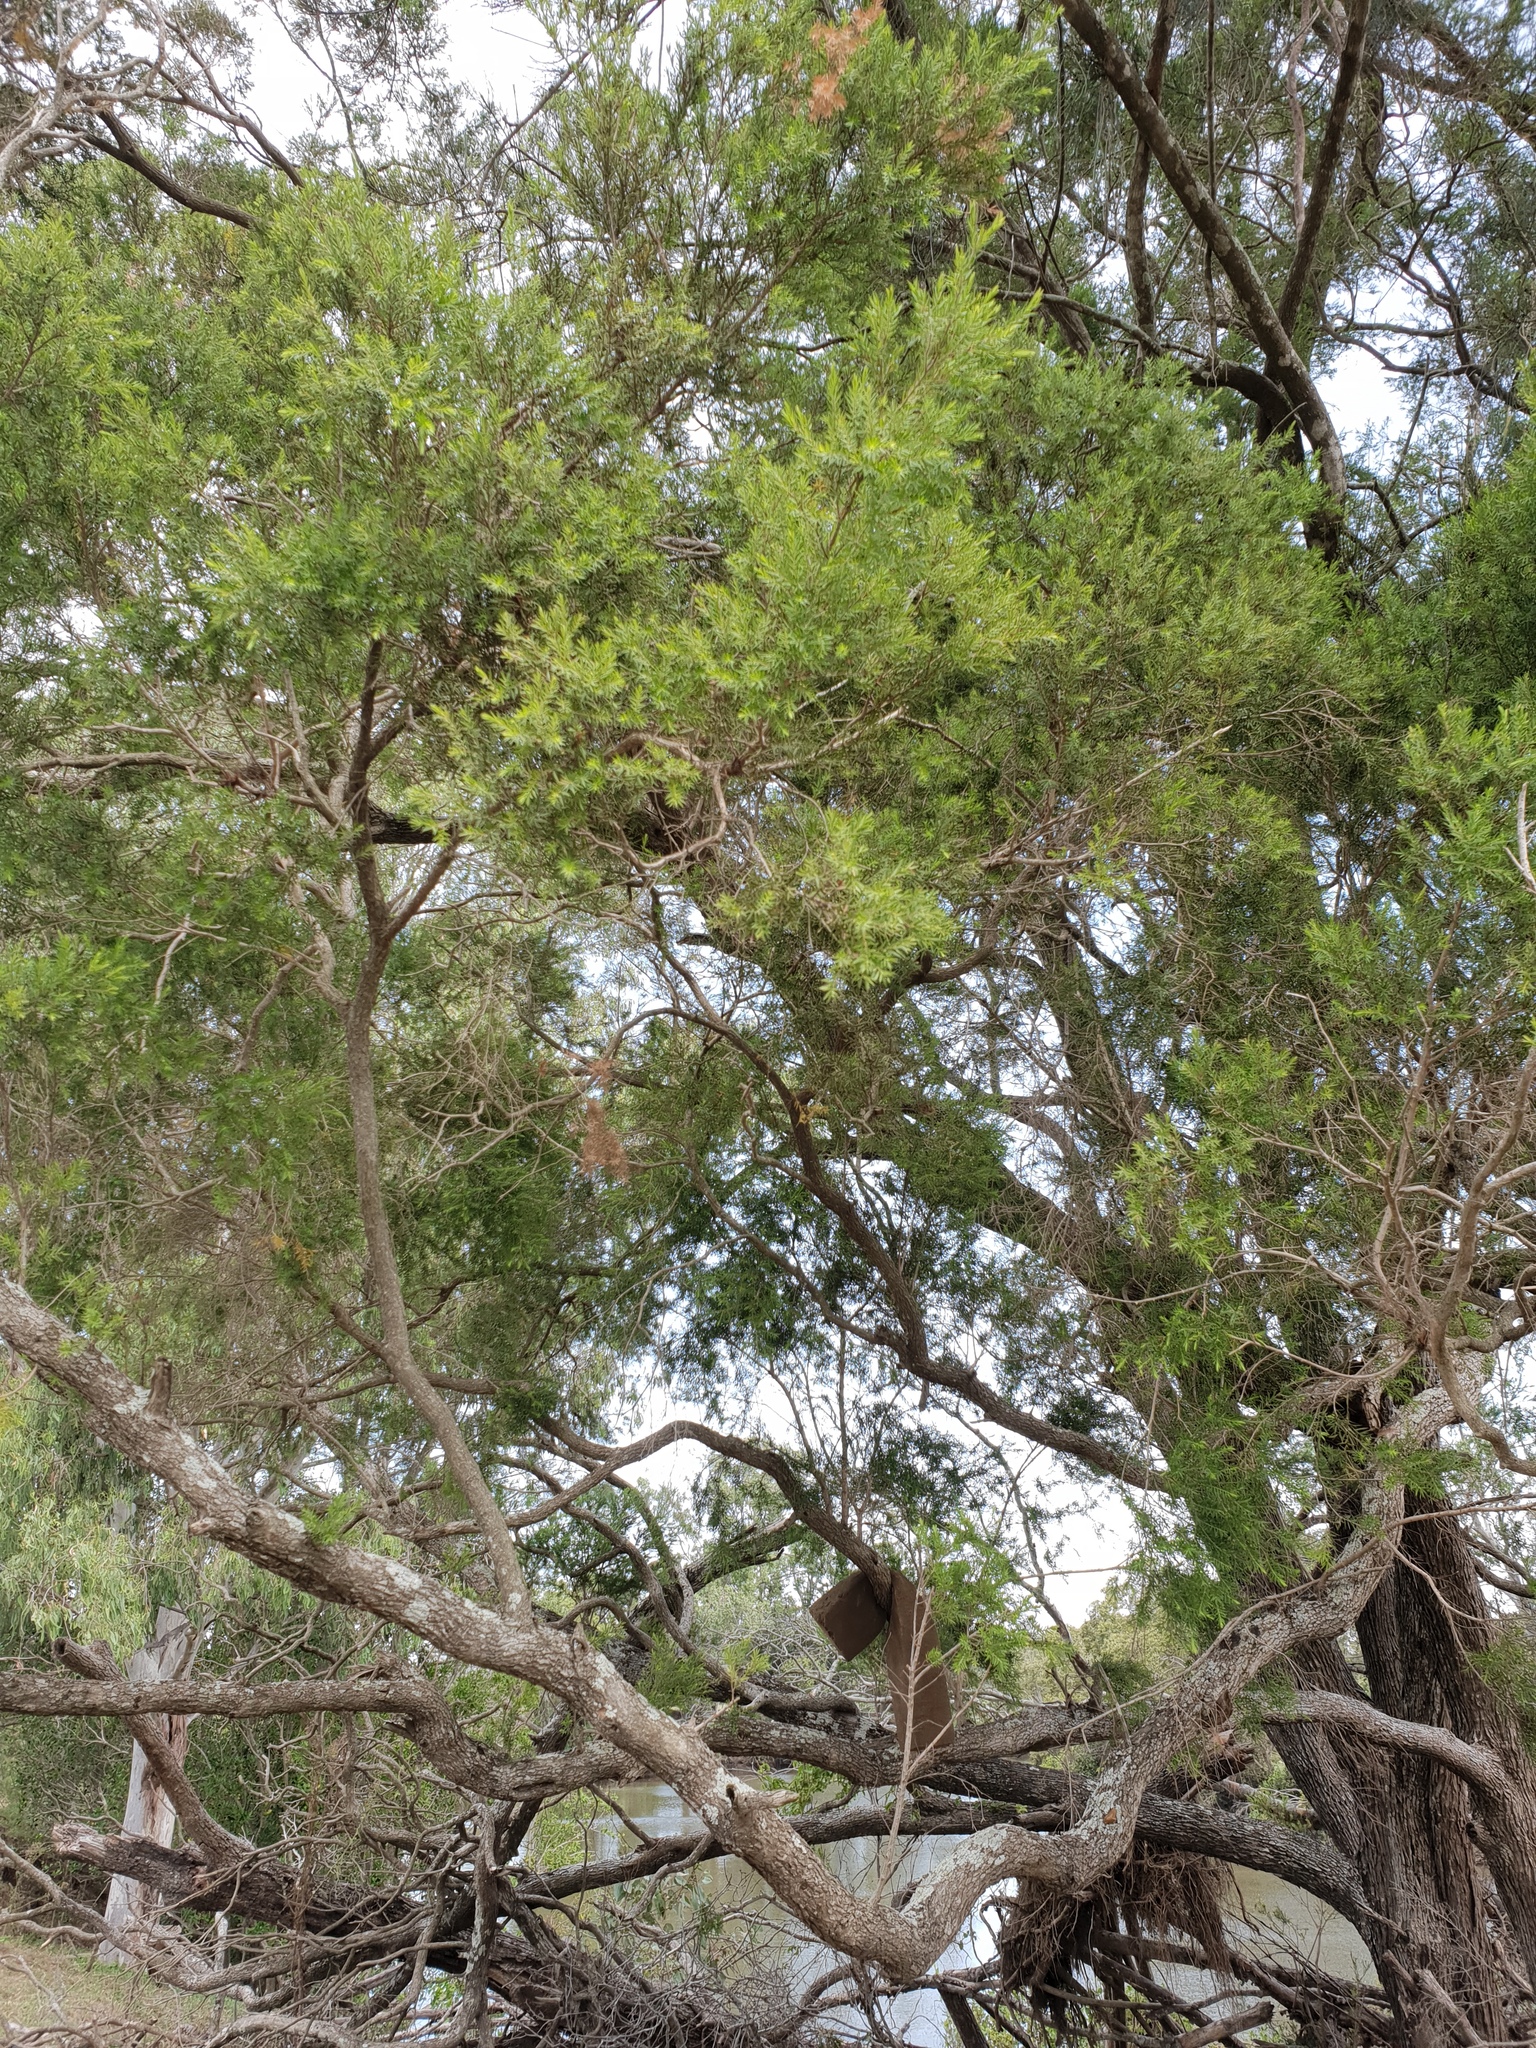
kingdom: Plantae
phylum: Tracheophyta
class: Magnoliopsida
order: Myrtales
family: Myrtaceae
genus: Melaleuca
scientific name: Melaleuca bracteata
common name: Black tea-tree
